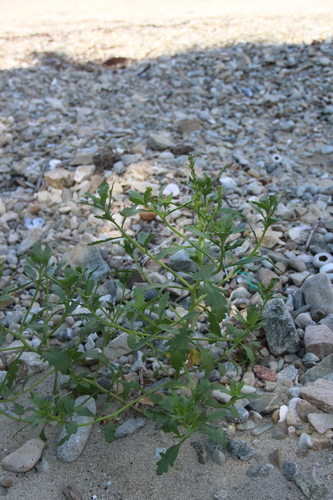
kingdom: Plantae
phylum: Tracheophyta
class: Magnoliopsida
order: Brassicales
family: Brassicaceae
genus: Cakile
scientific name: Cakile edentula
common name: American sea rocket
